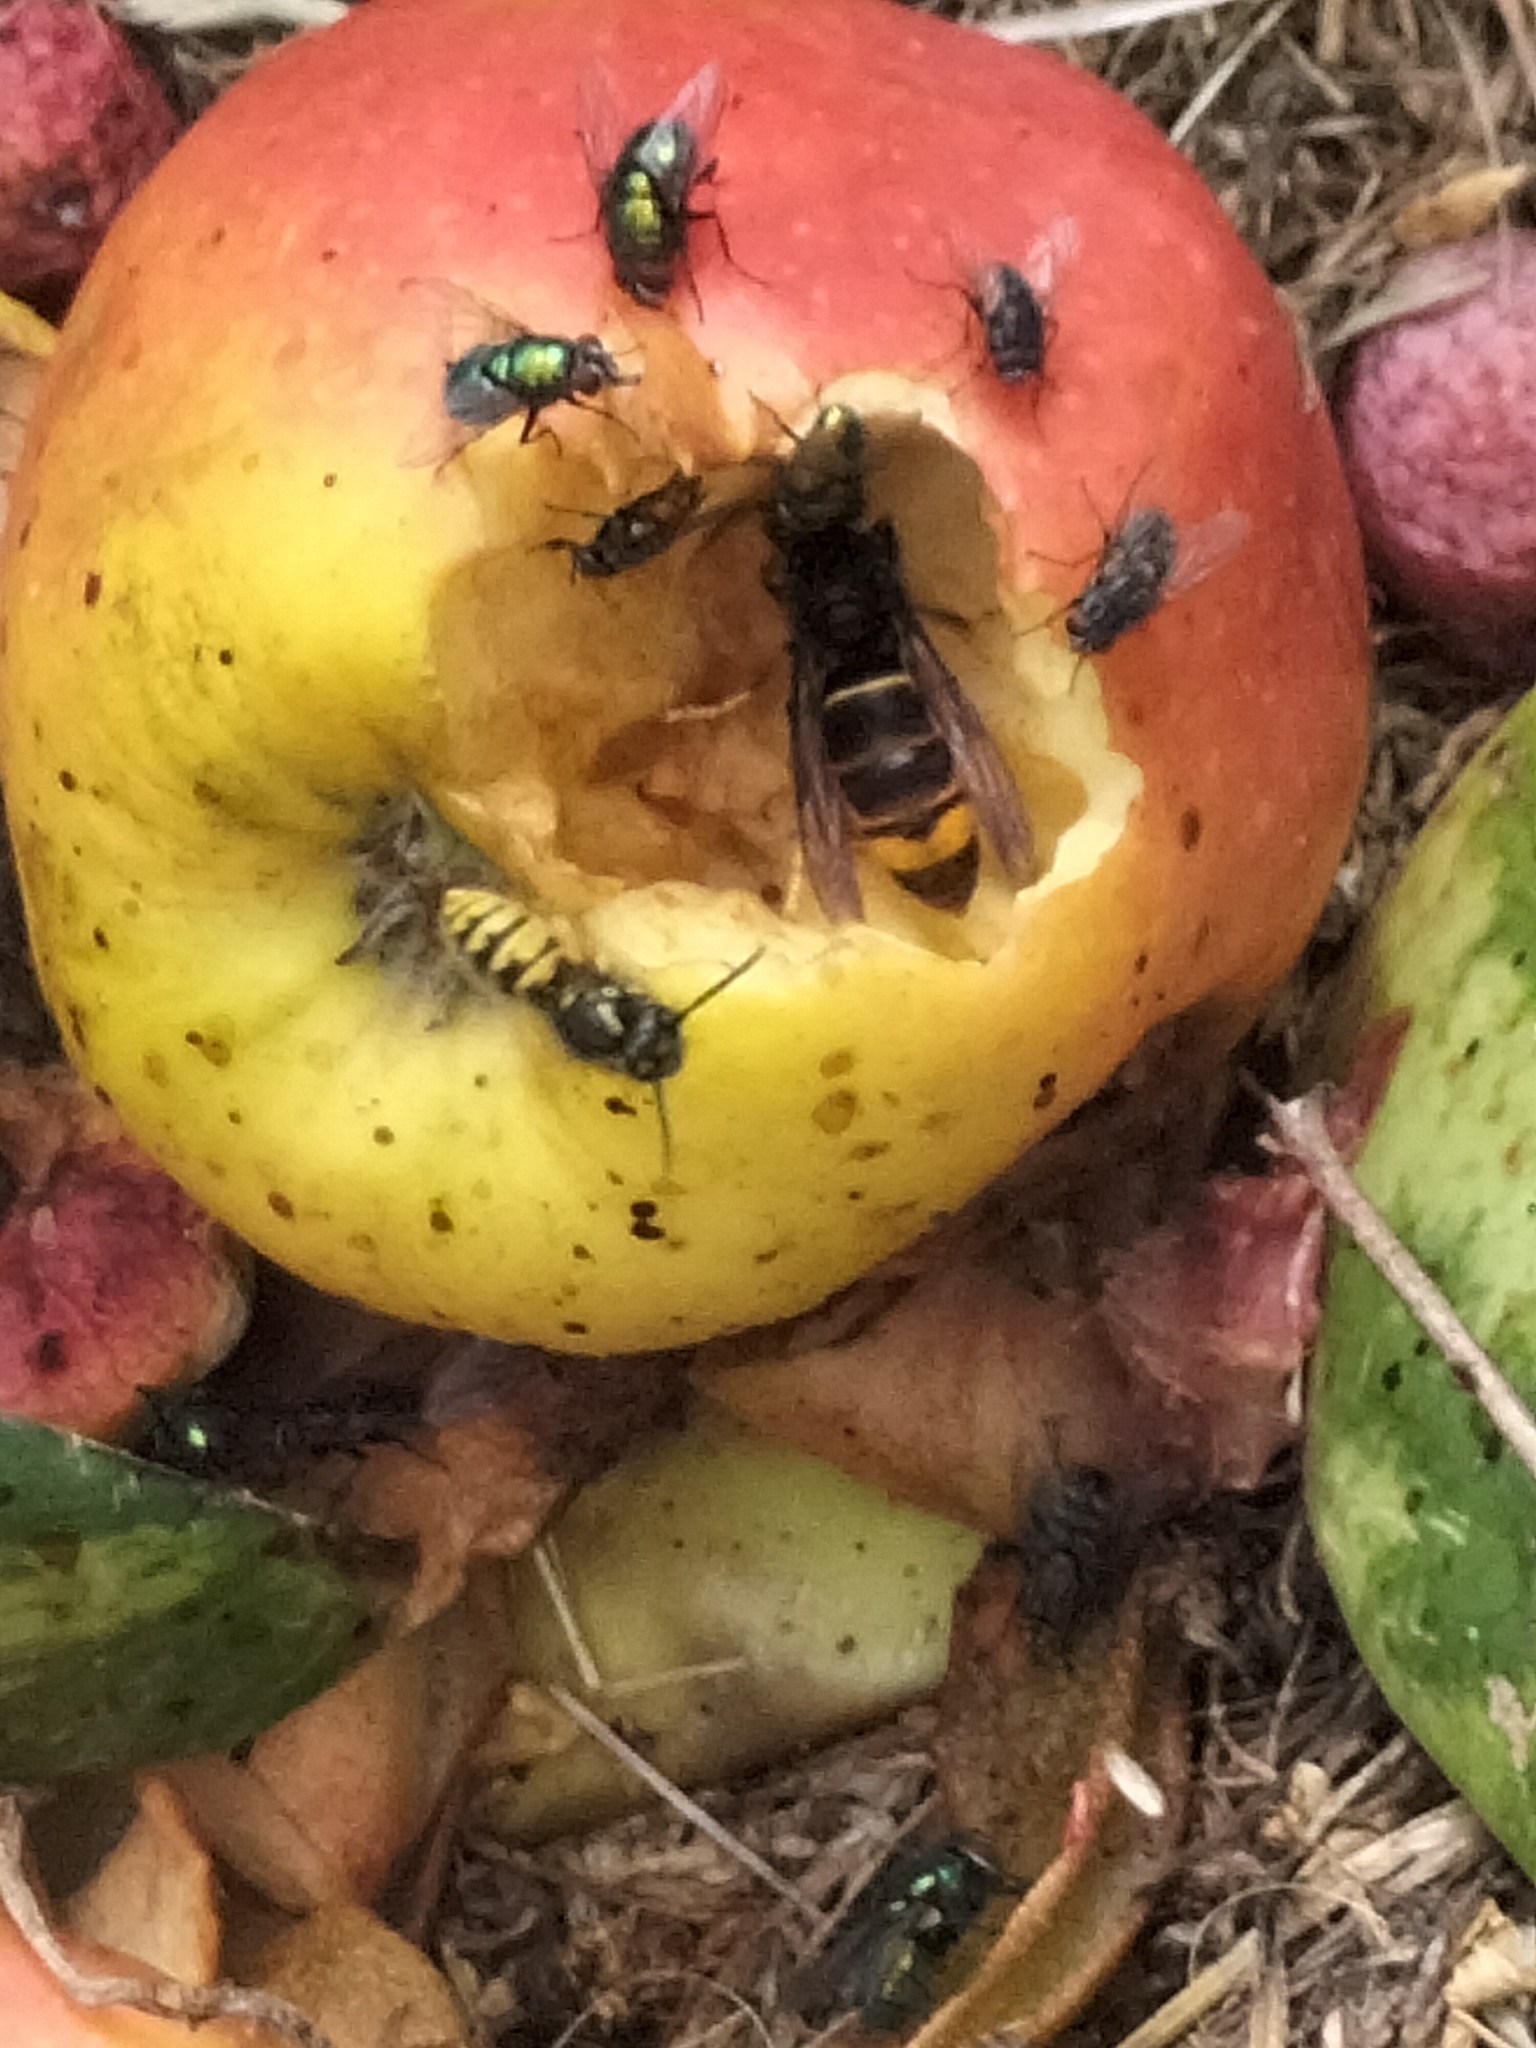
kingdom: Animalia
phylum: Arthropoda
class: Insecta
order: Hymenoptera
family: Vespidae
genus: Vespa
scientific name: Vespa velutina
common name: Asian hornet
